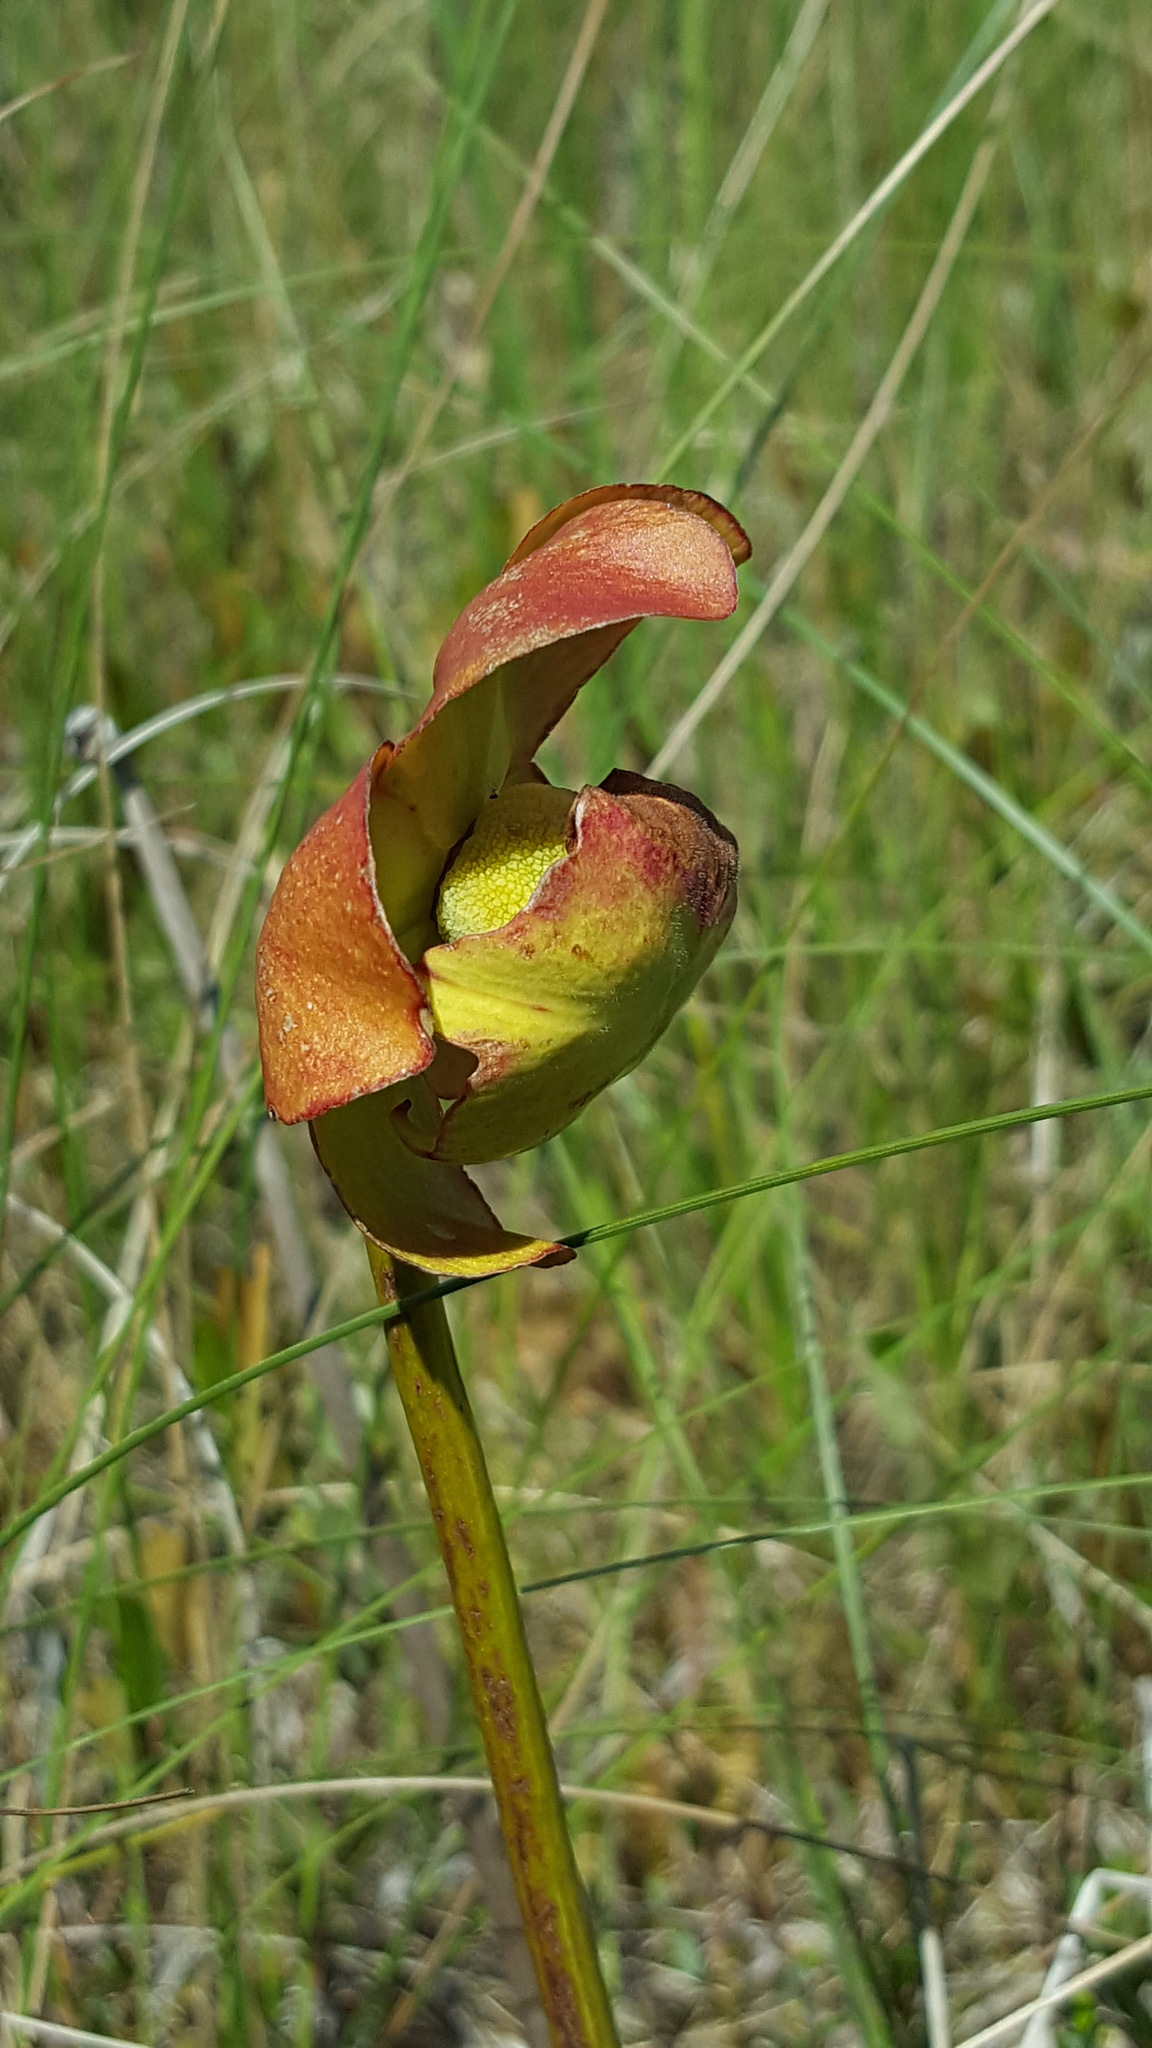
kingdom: Plantae
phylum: Tracheophyta
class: Magnoliopsida
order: Ericales
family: Sarraceniaceae
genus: Sarracenia
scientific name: Sarracenia purpurea
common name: Pitcherplant
